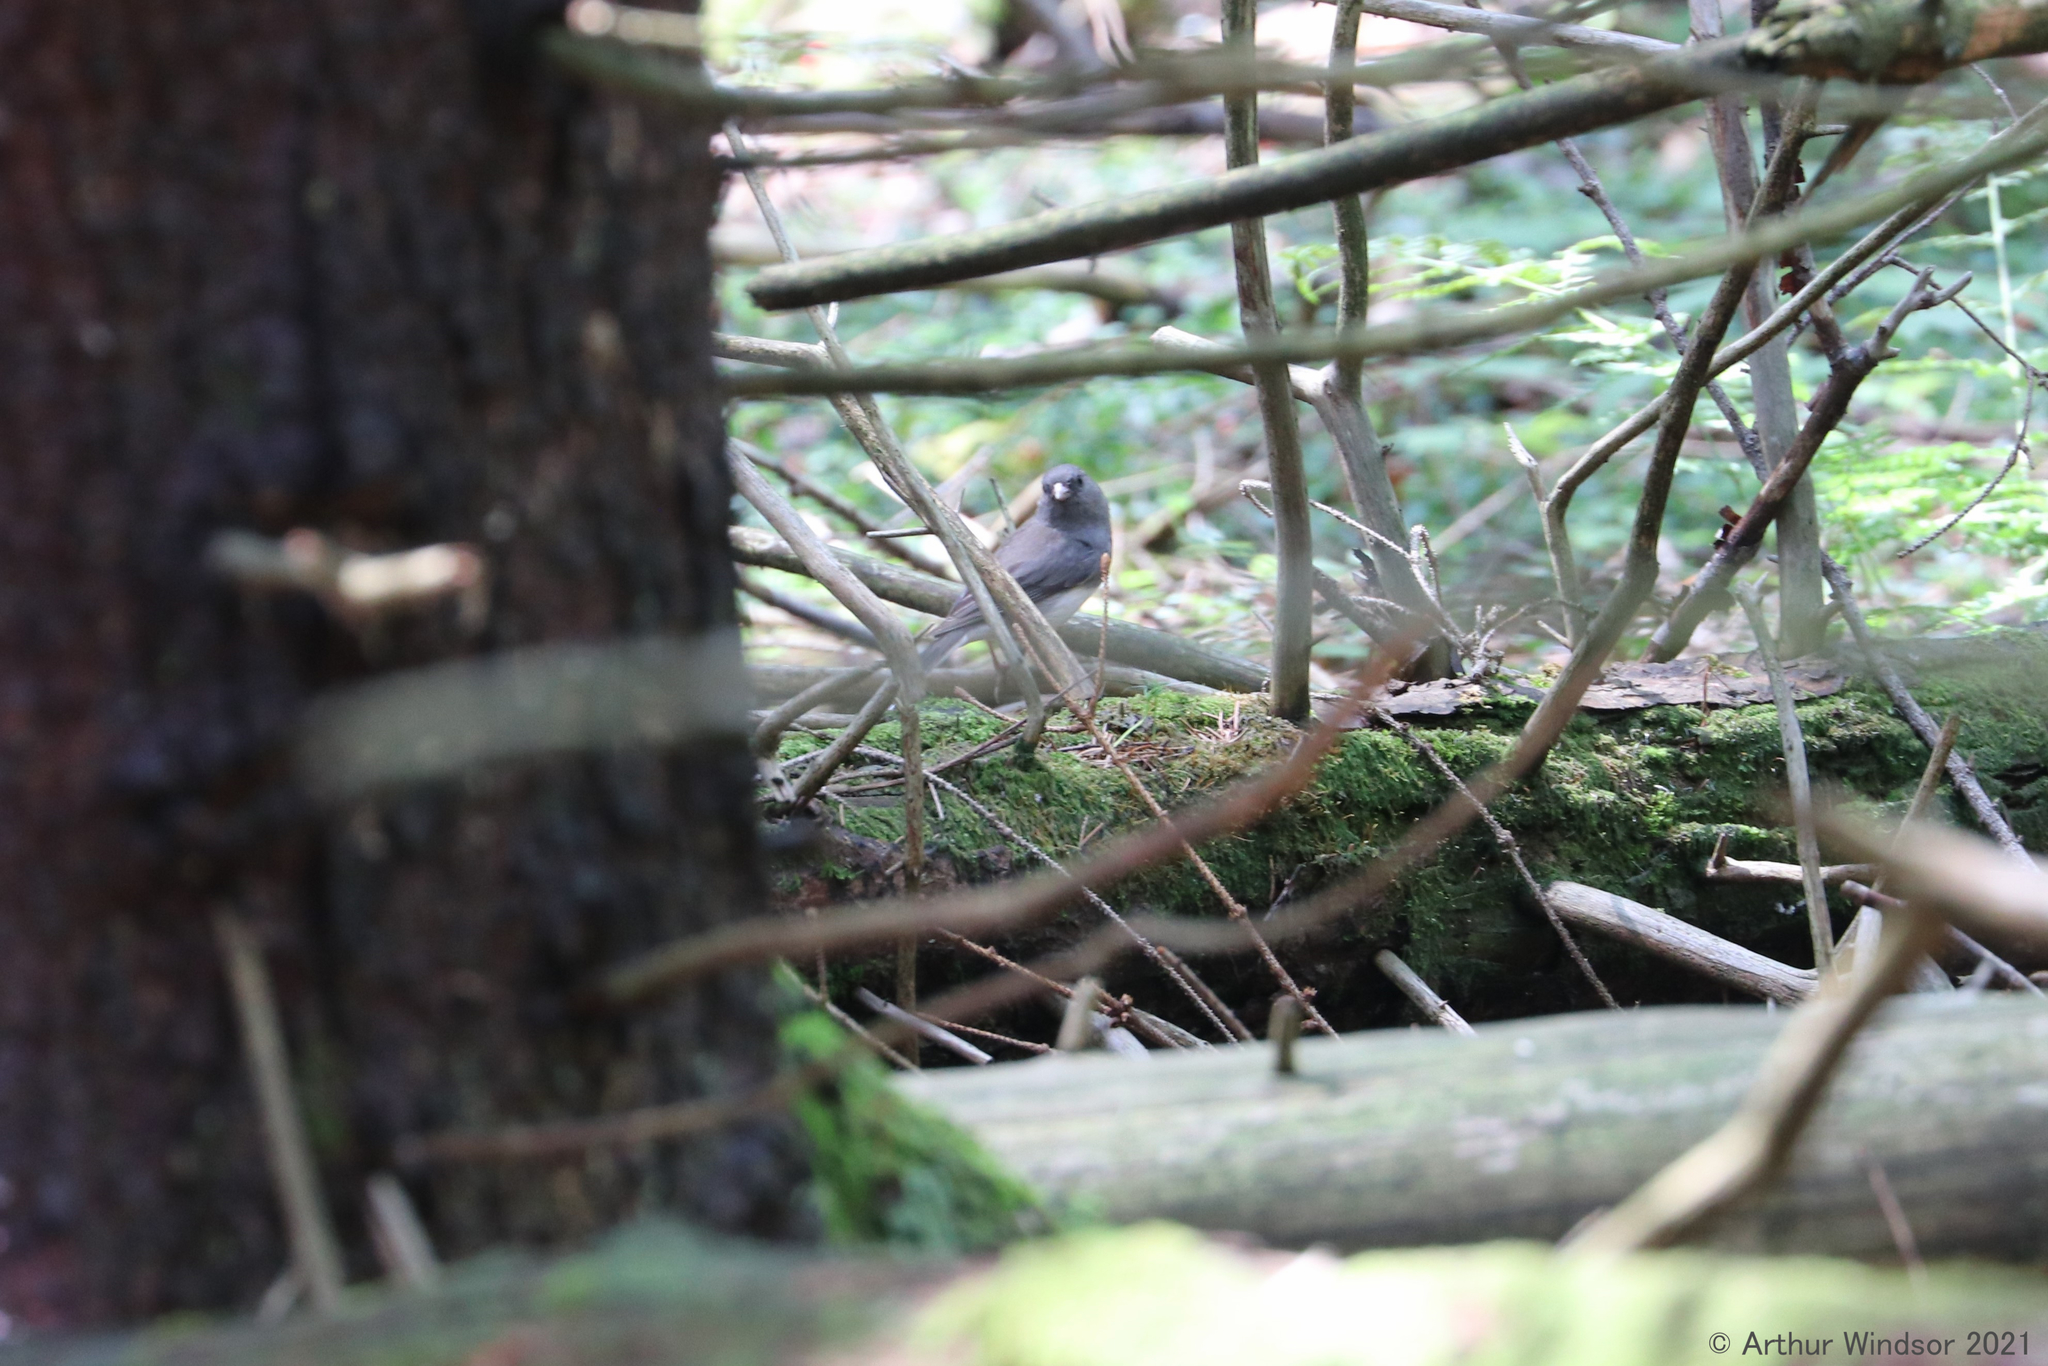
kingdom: Animalia
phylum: Chordata
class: Aves
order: Passeriformes
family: Passerellidae
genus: Junco
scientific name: Junco hyemalis
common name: Dark-eyed junco
